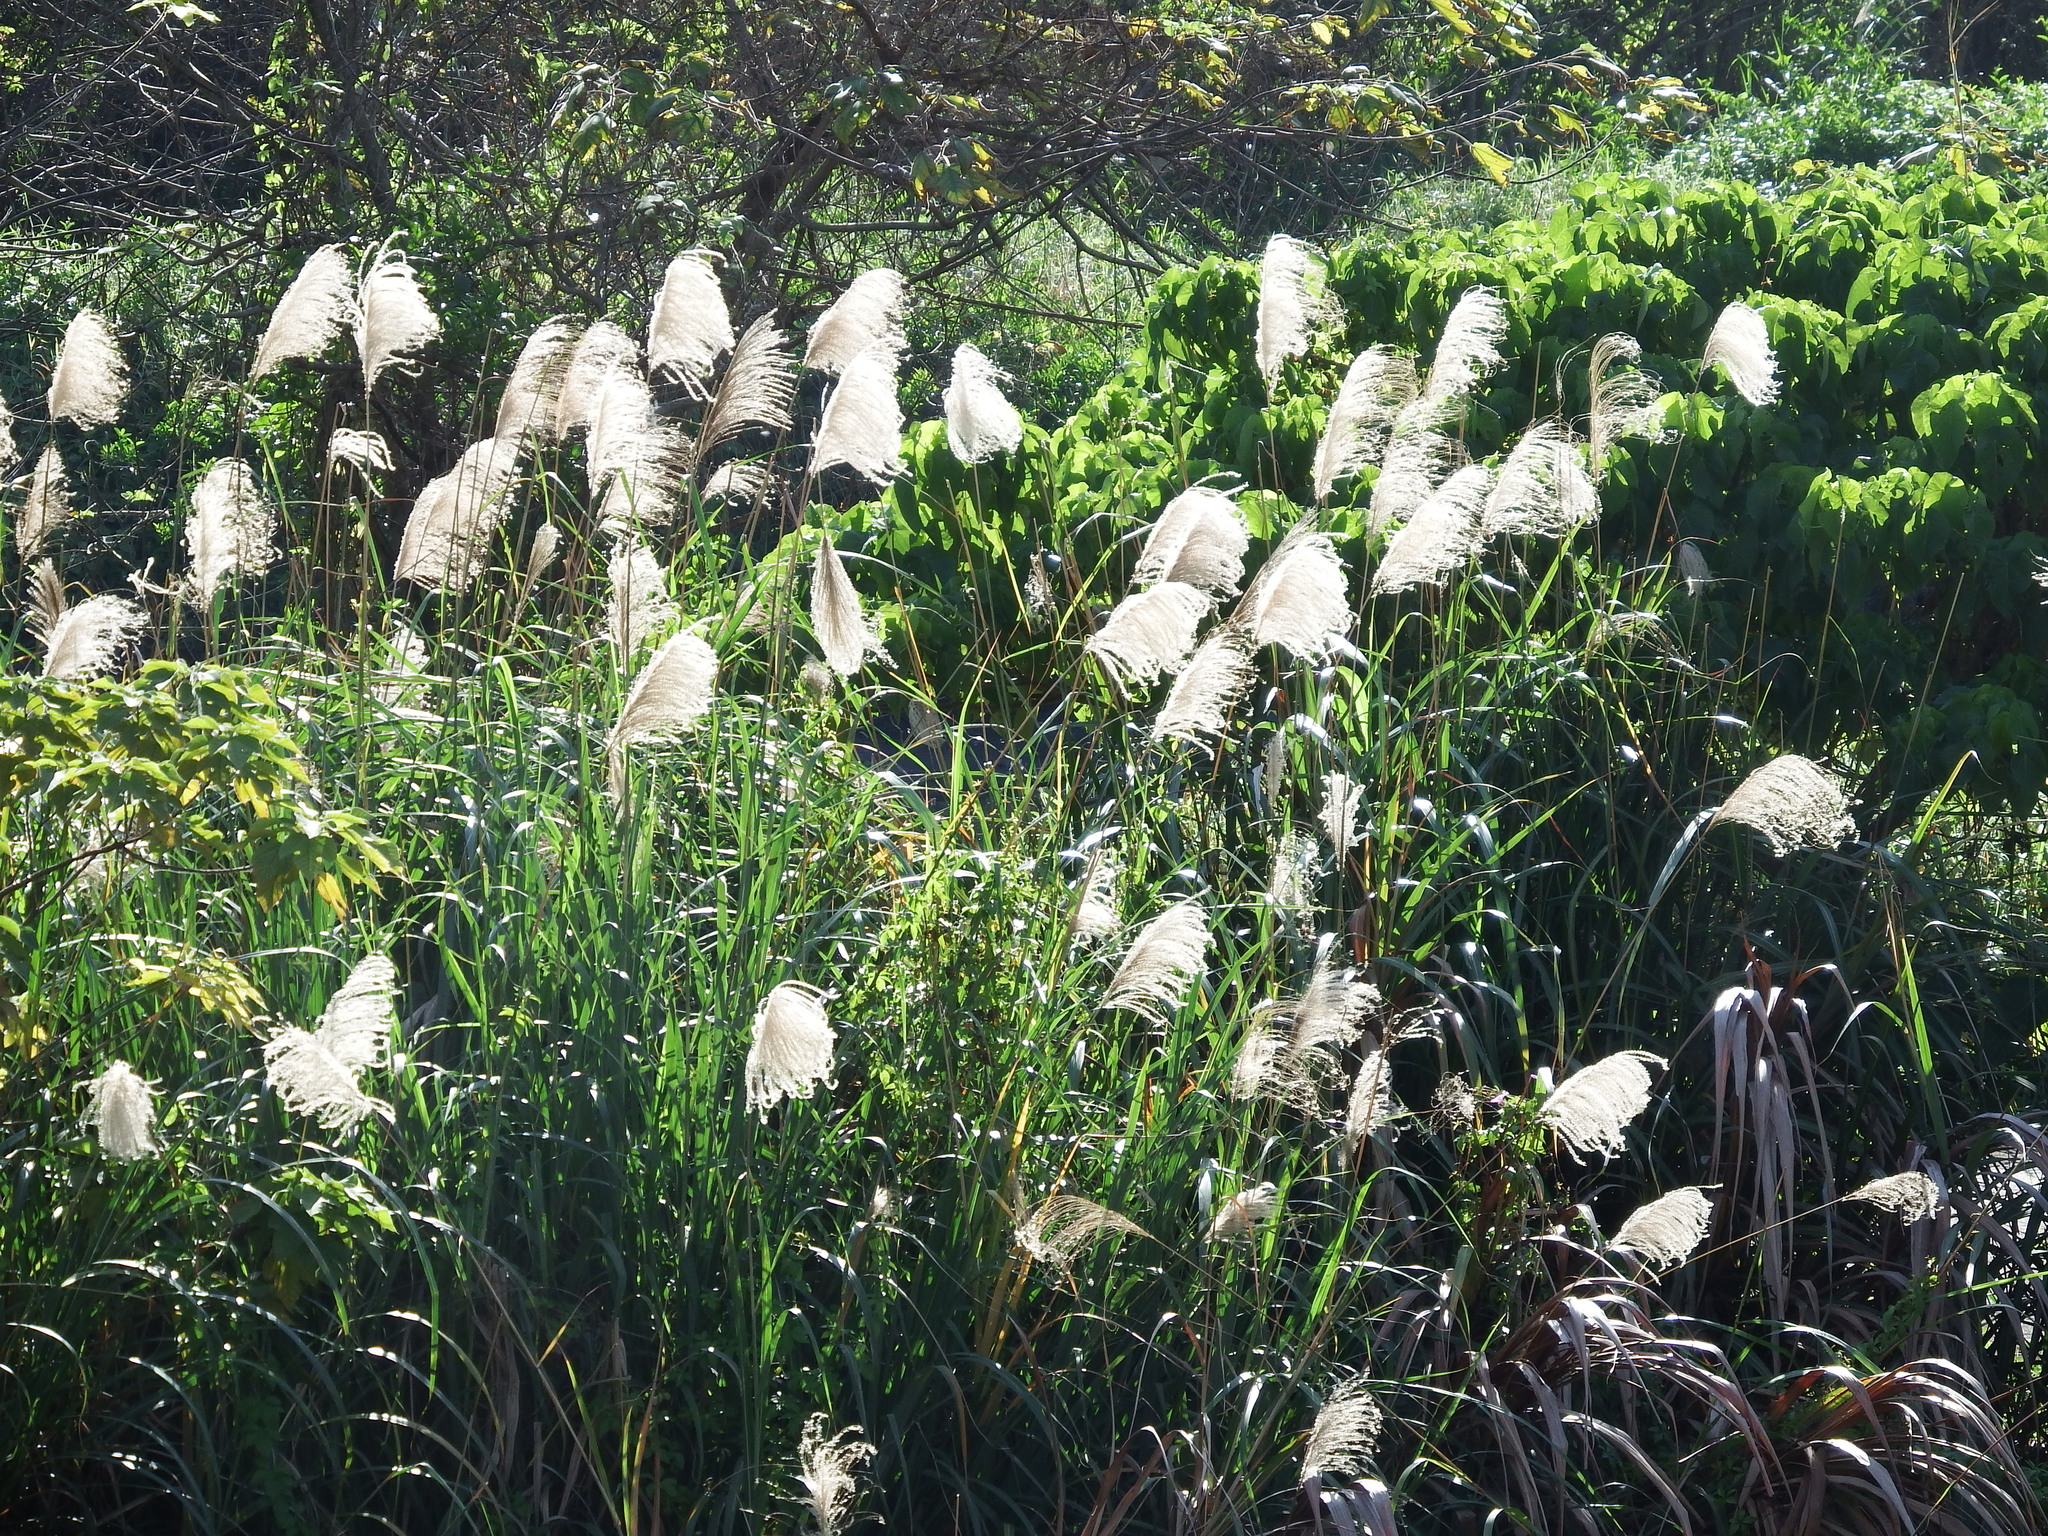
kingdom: Plantae
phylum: Tracheophyta
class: Liliopsida
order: Poales
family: Poaceae
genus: Miscanthus
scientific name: Miscanthus sinensis
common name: Chinese silvergrass
